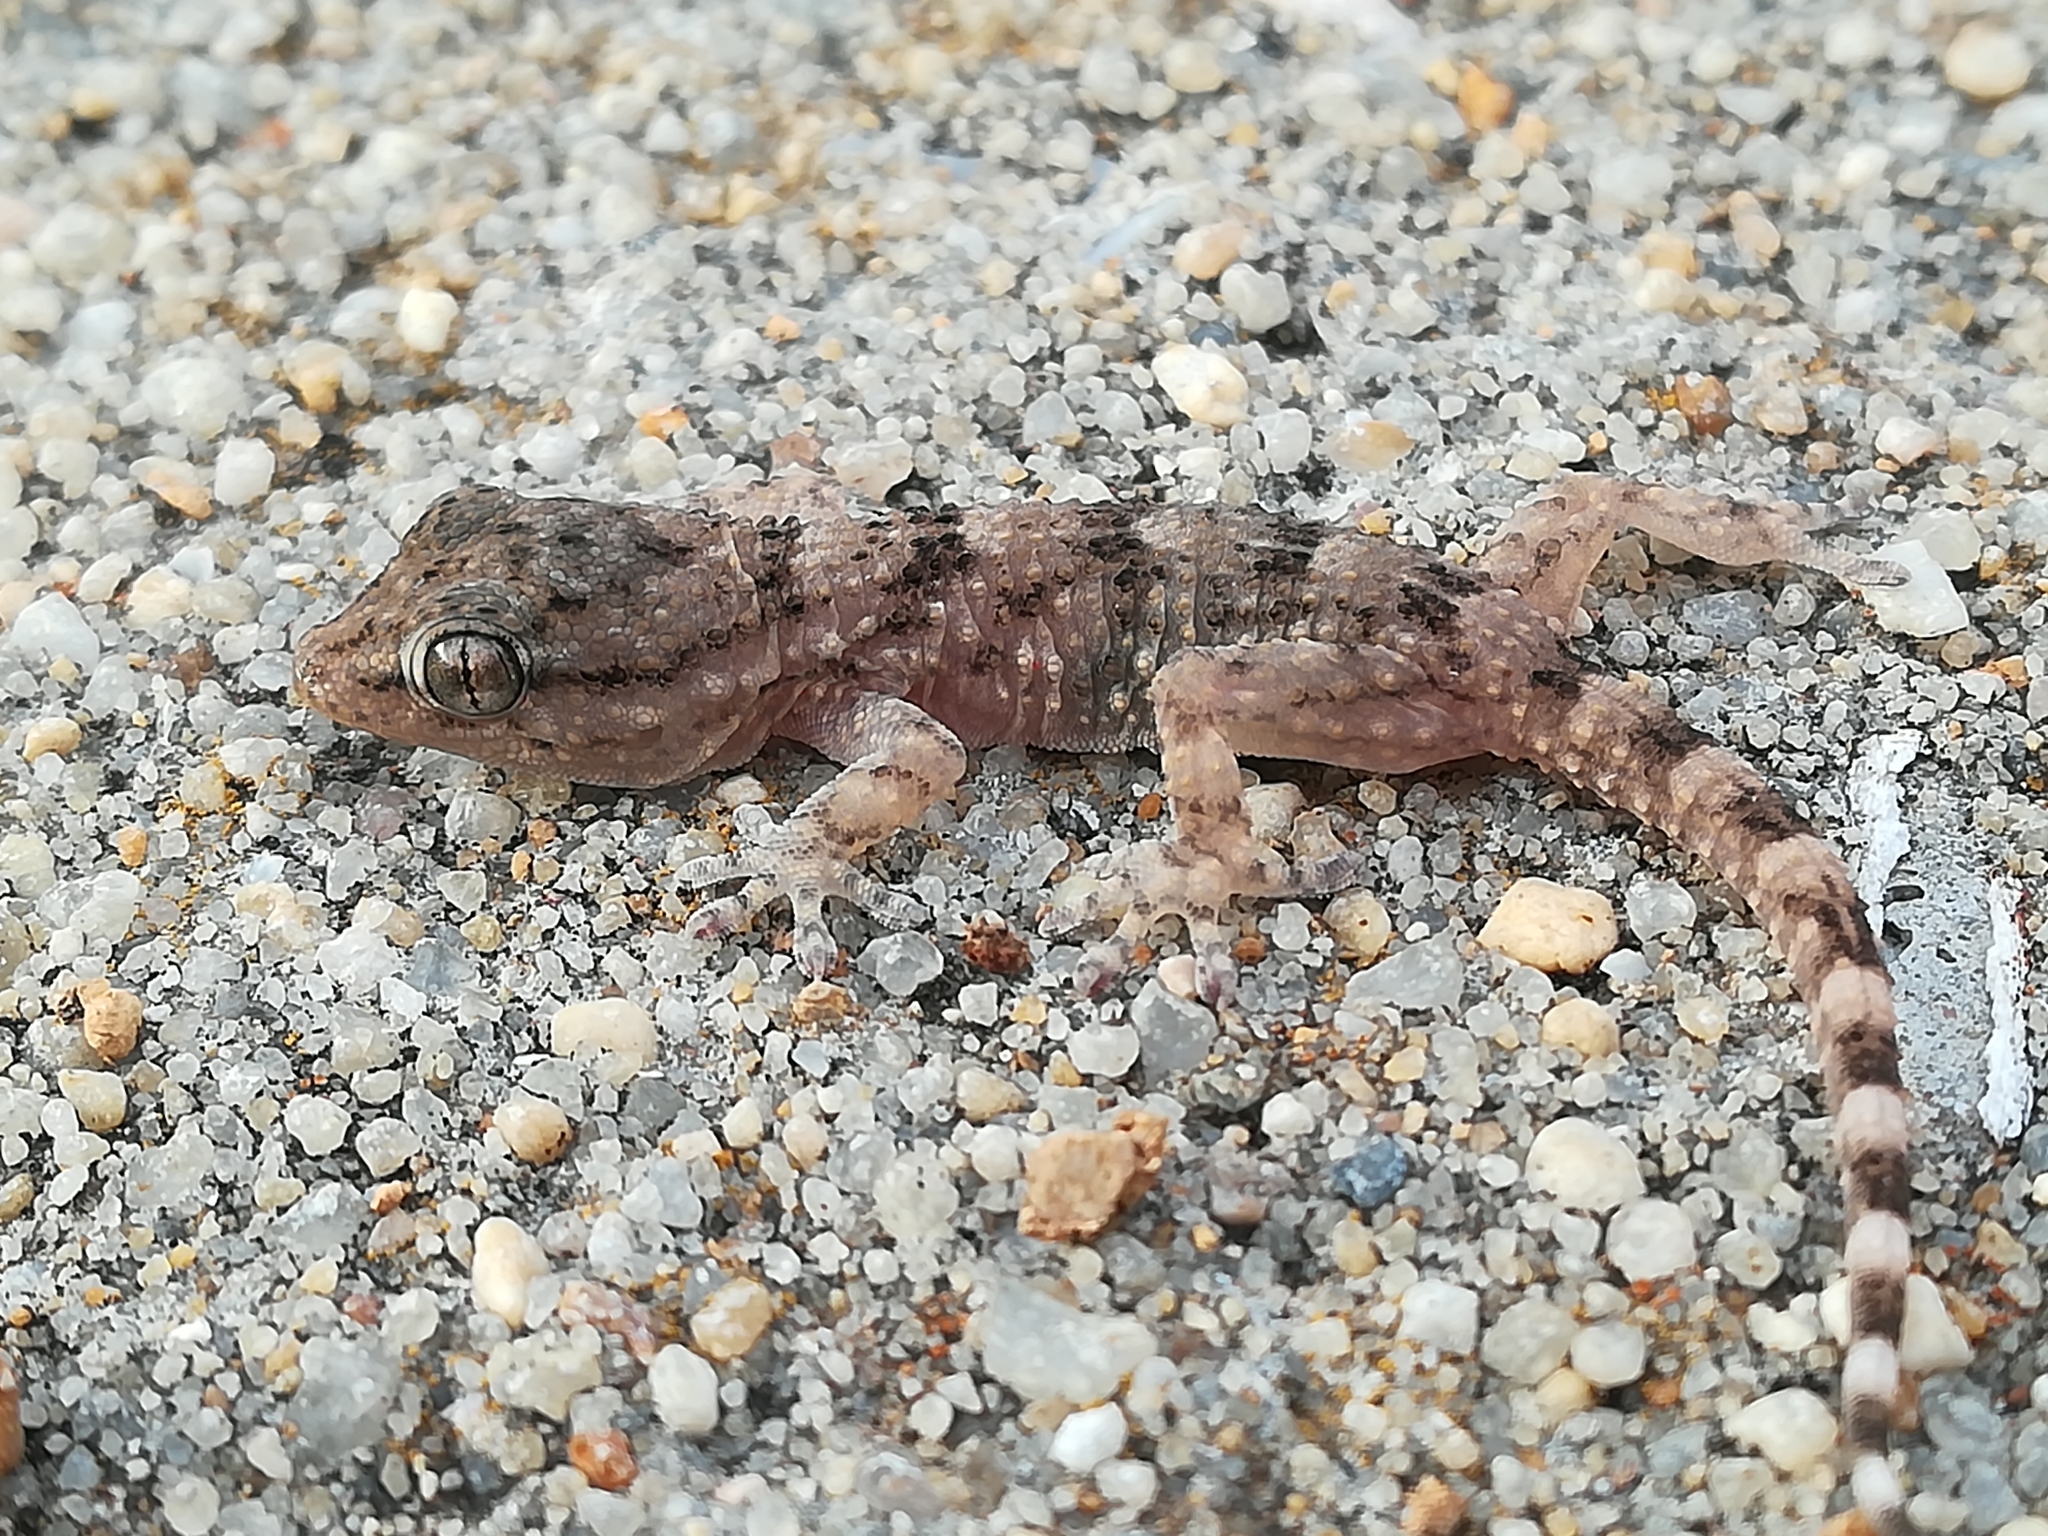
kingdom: Animalia
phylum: Chordata
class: Squamata
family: Phyllodactylidae
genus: Tarentola
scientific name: Tarentola mauritanica
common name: Moorish gecko
